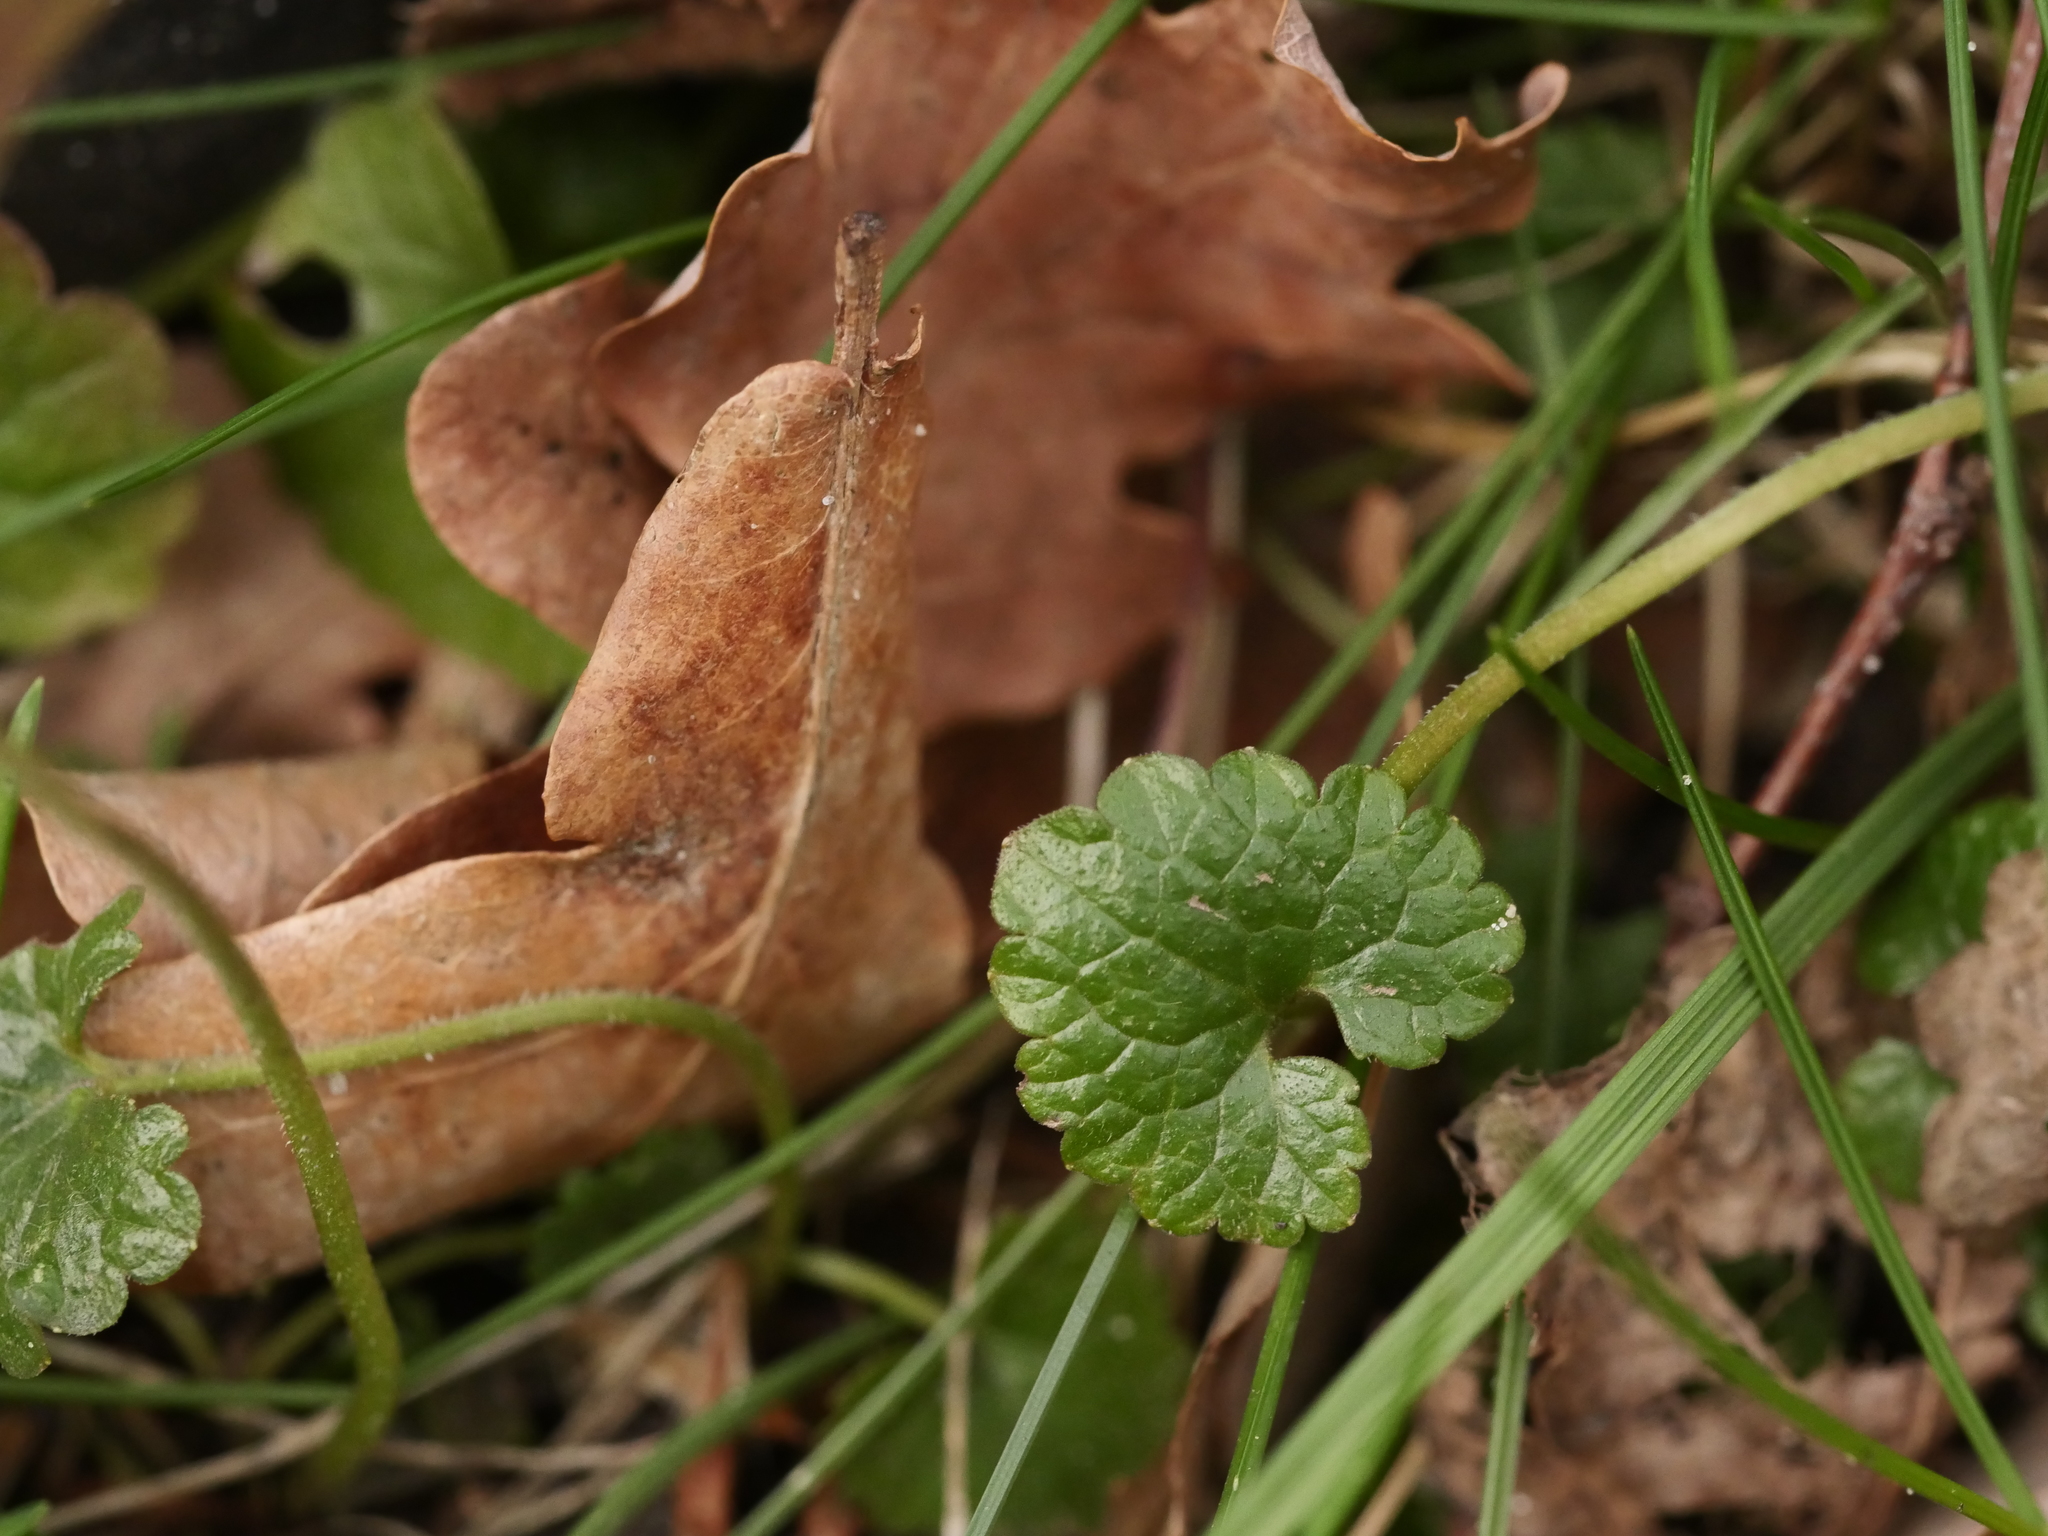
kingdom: Plantae
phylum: Tracheophyta
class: Magnoliopsida
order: Lamiales
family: Lamiaceae
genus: Glechoma
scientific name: Glechoma hederacea
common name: Ground ivy
